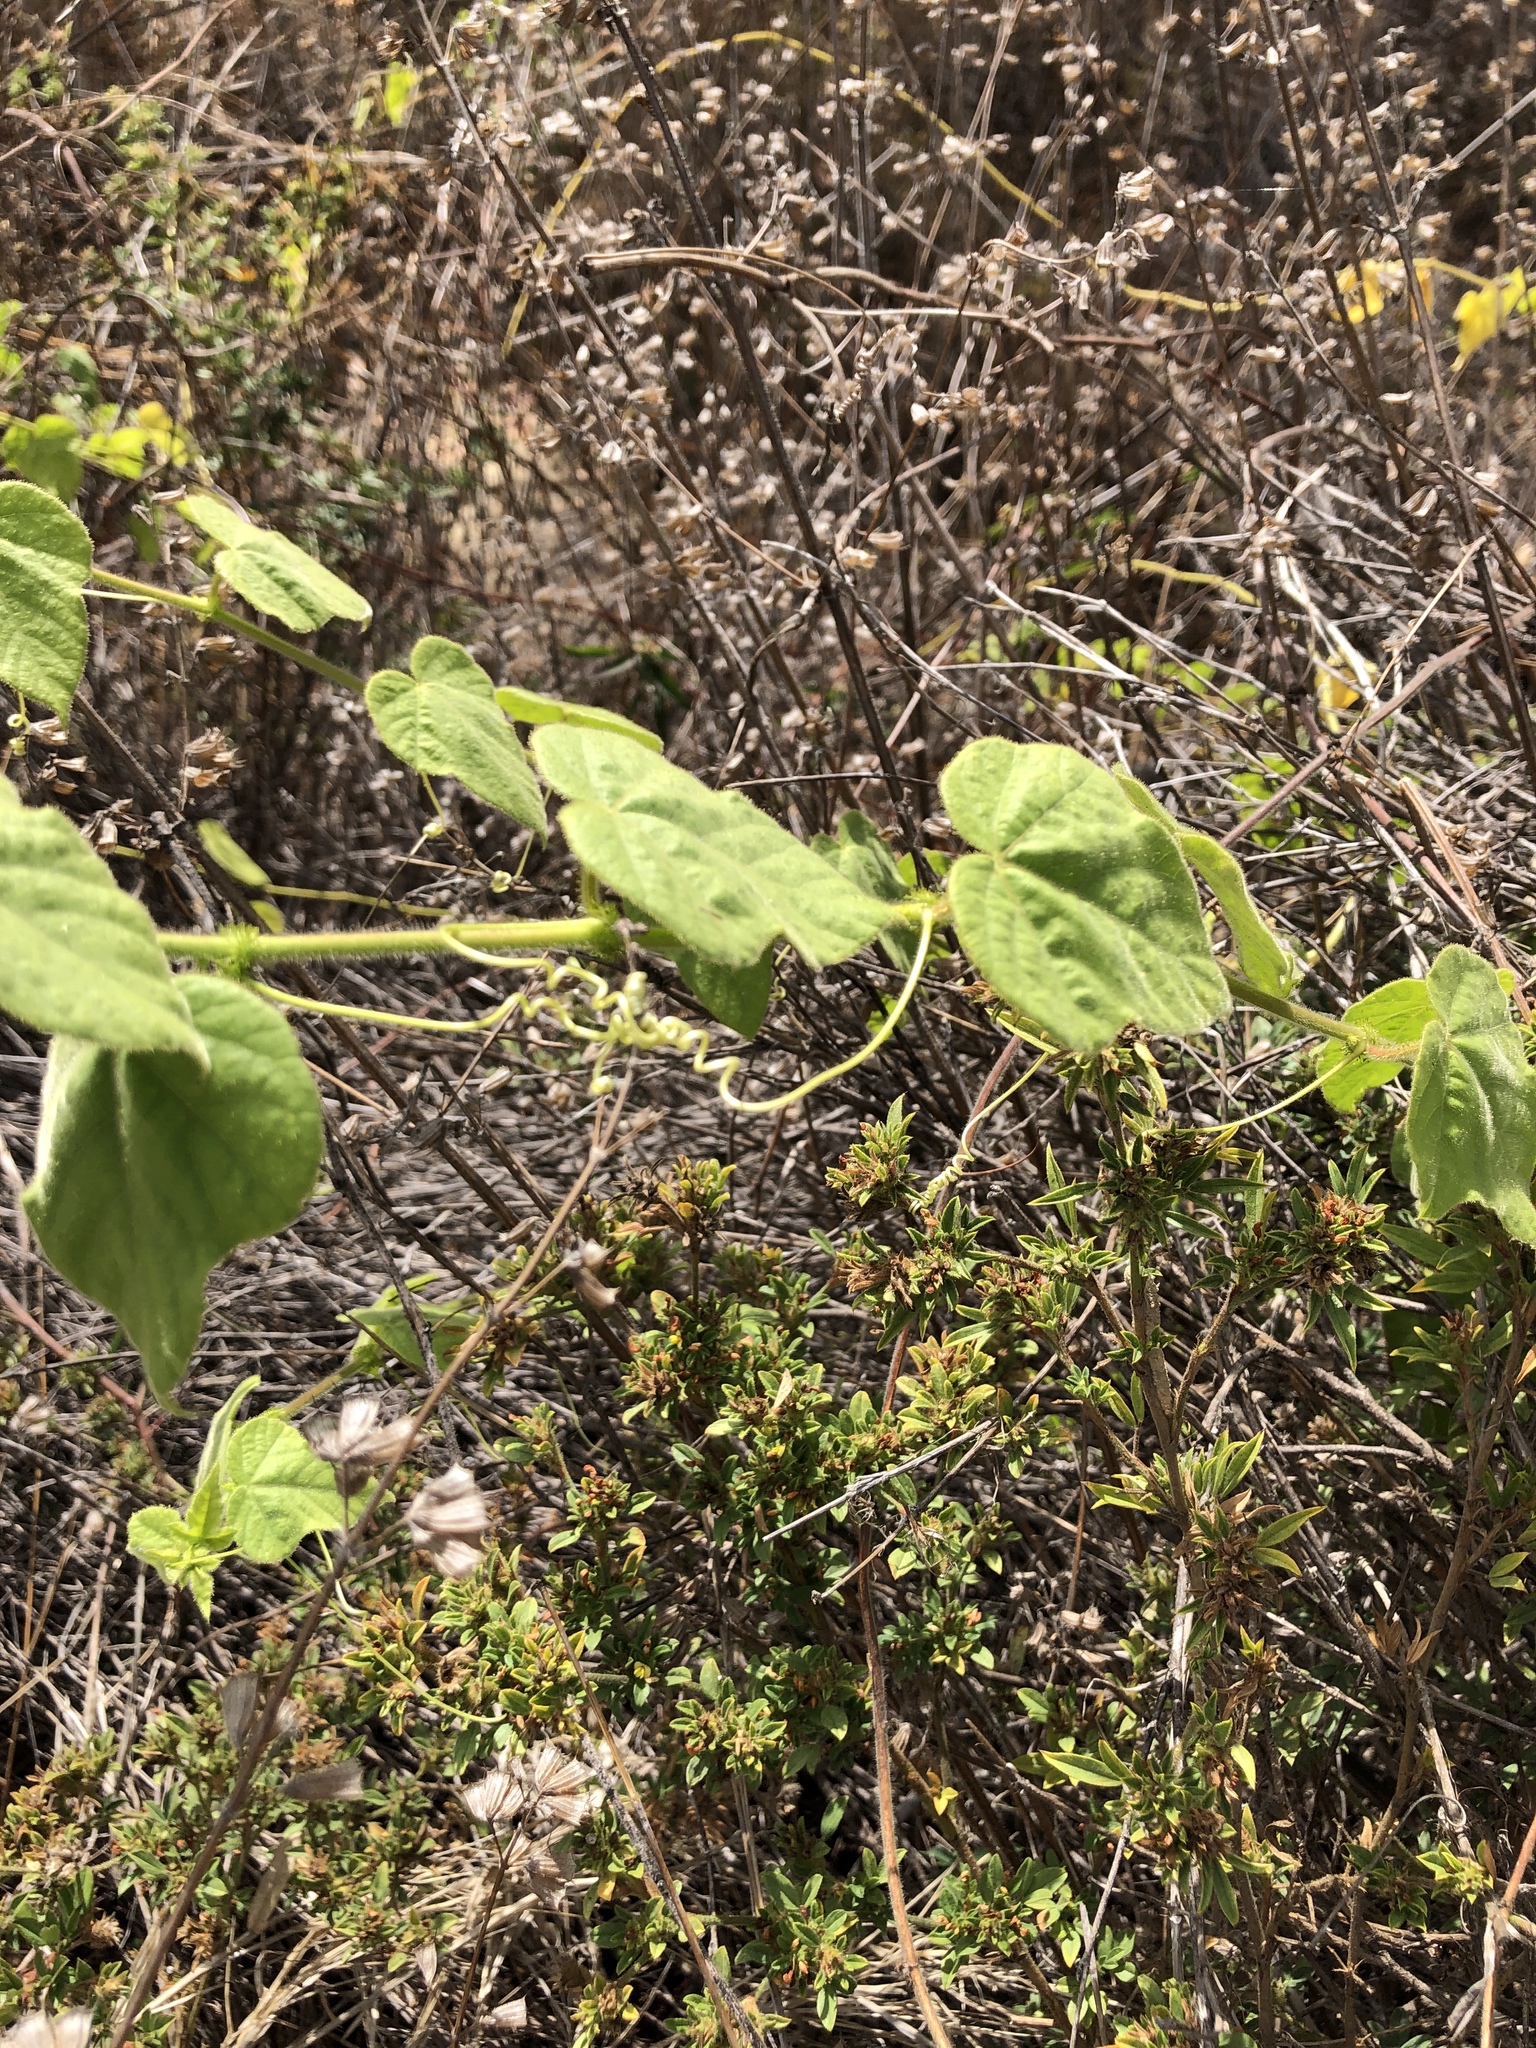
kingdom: Plantae
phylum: Tracheophyta
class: Magnoliopsida
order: Malpighiales
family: Passifloraceae
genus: Passiflora
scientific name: Passiflora foetida
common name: Fetid passionflower
